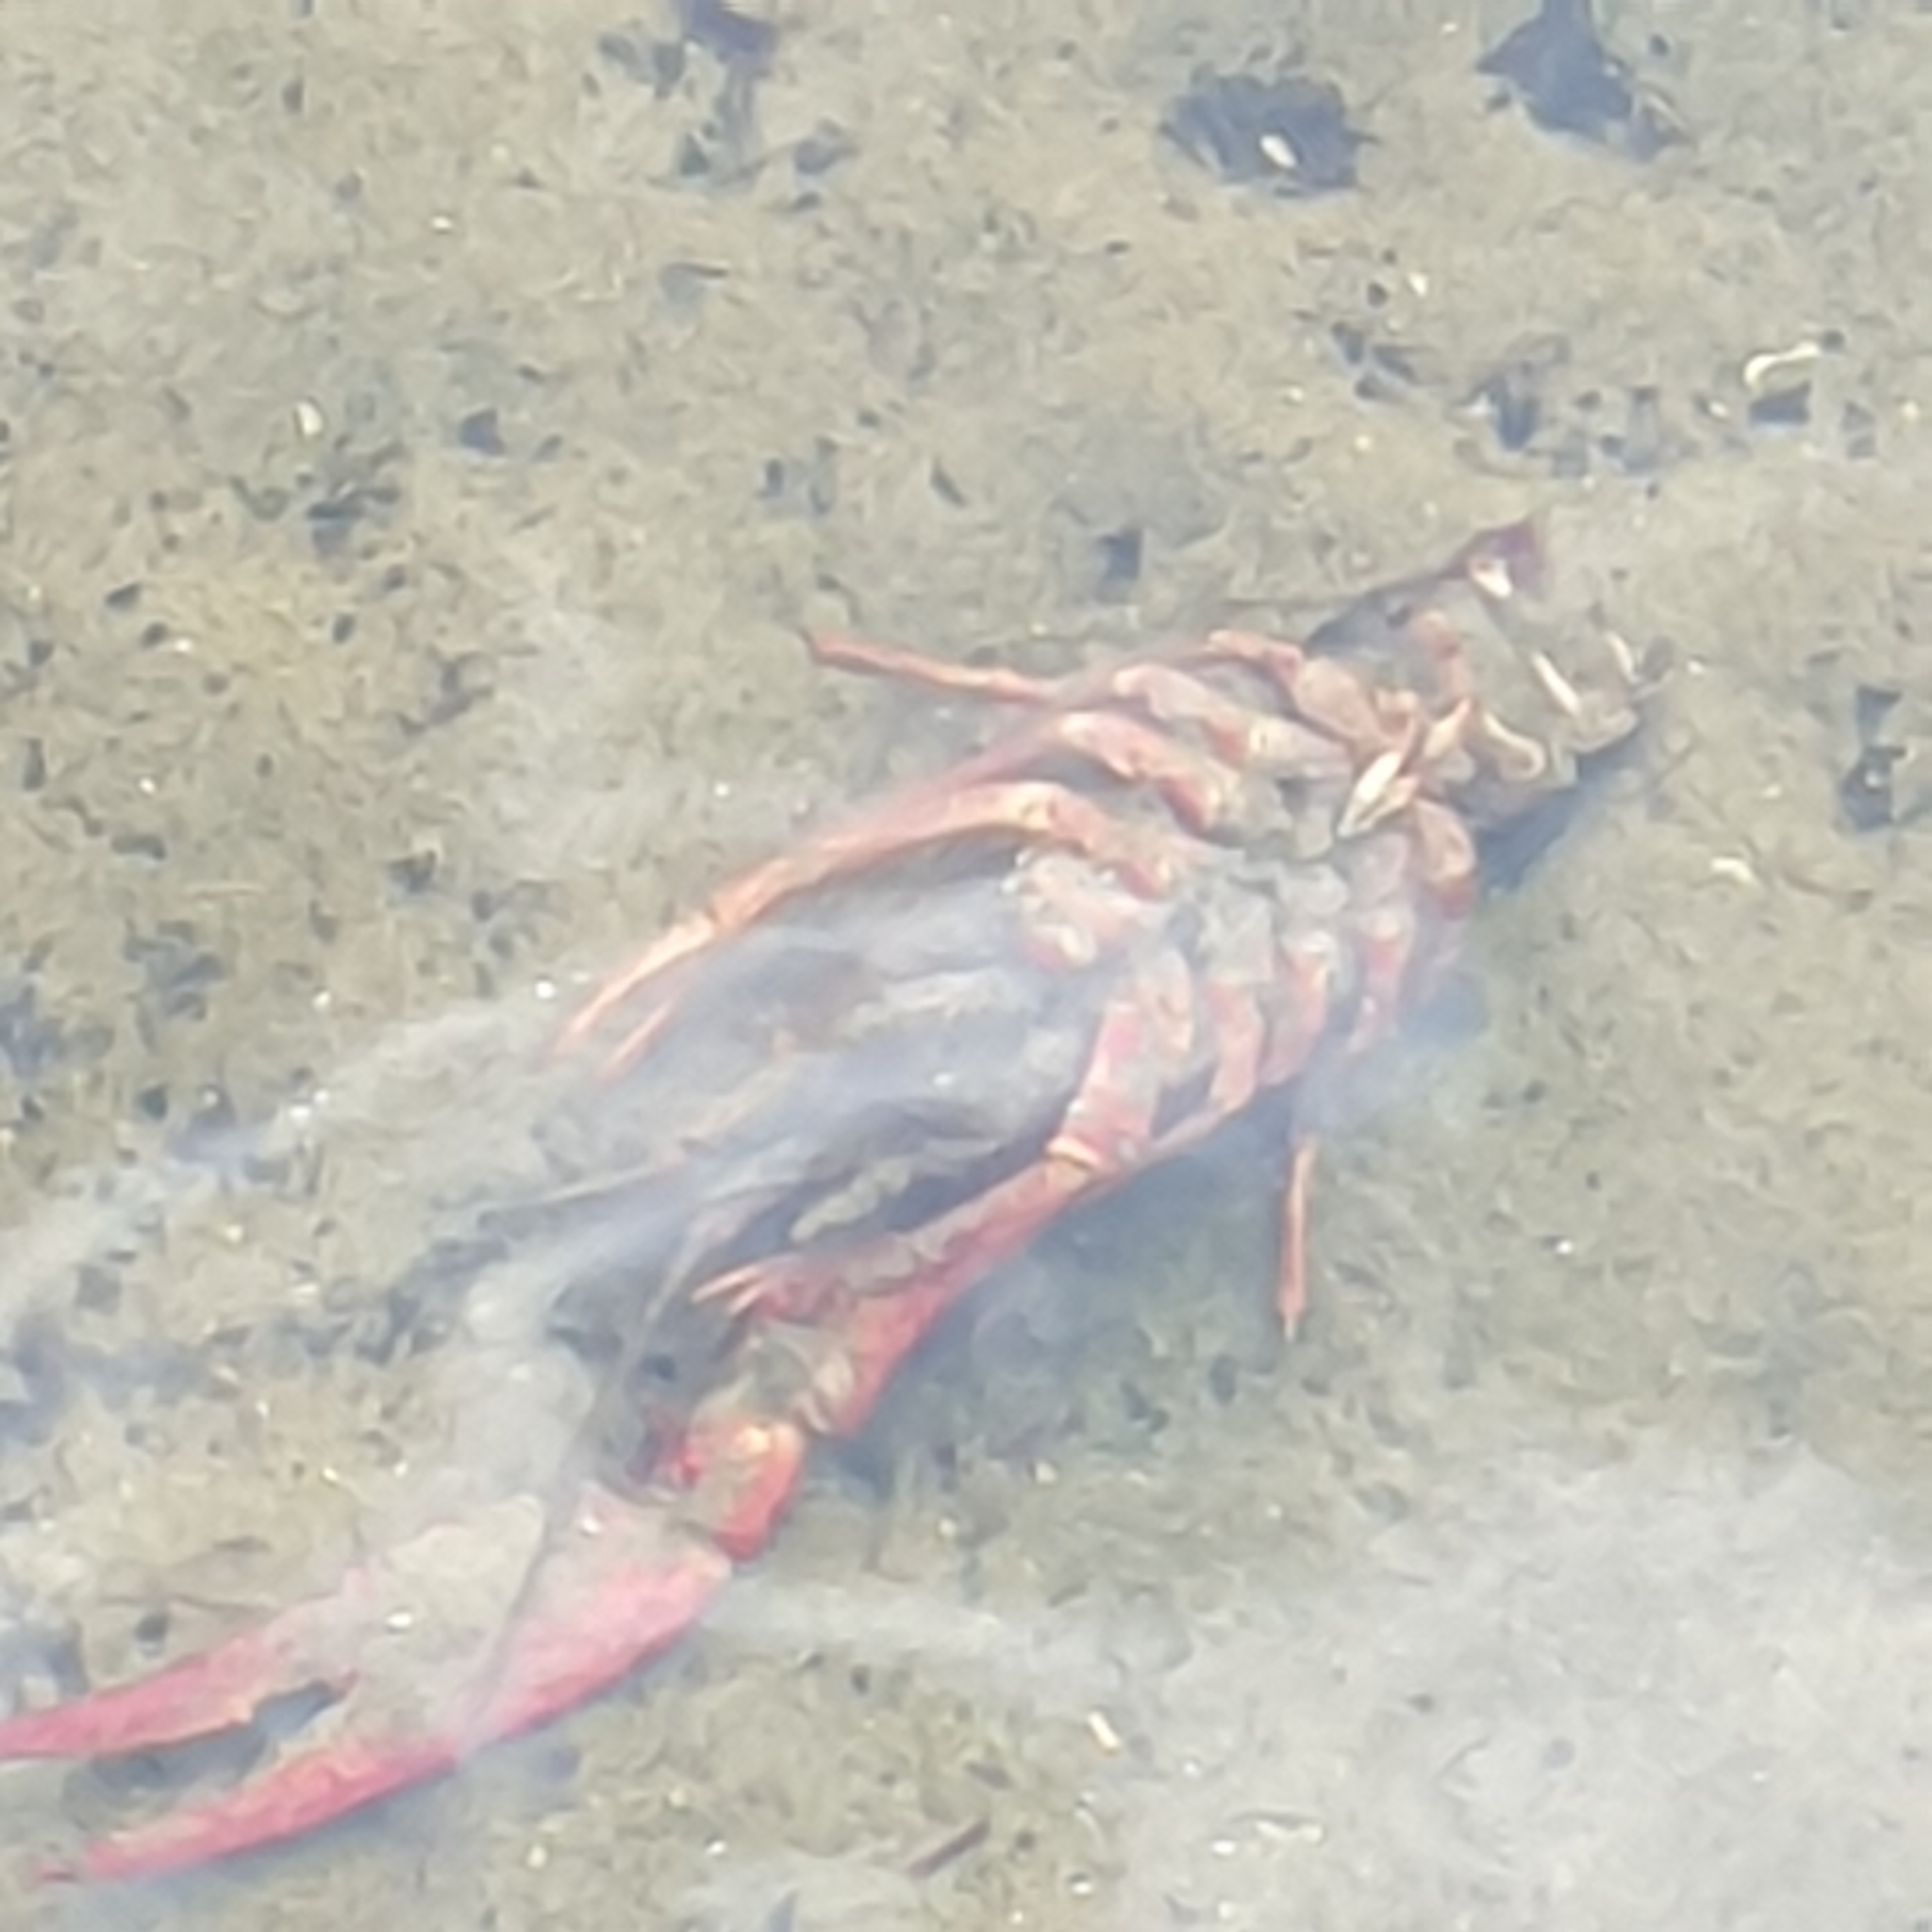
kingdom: Animalia
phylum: Arthropoda
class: Malacostraca
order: Decapoda
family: Cambaridae
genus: Procambarus
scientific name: Procambarus clarkii
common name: Red swamp crayfish
